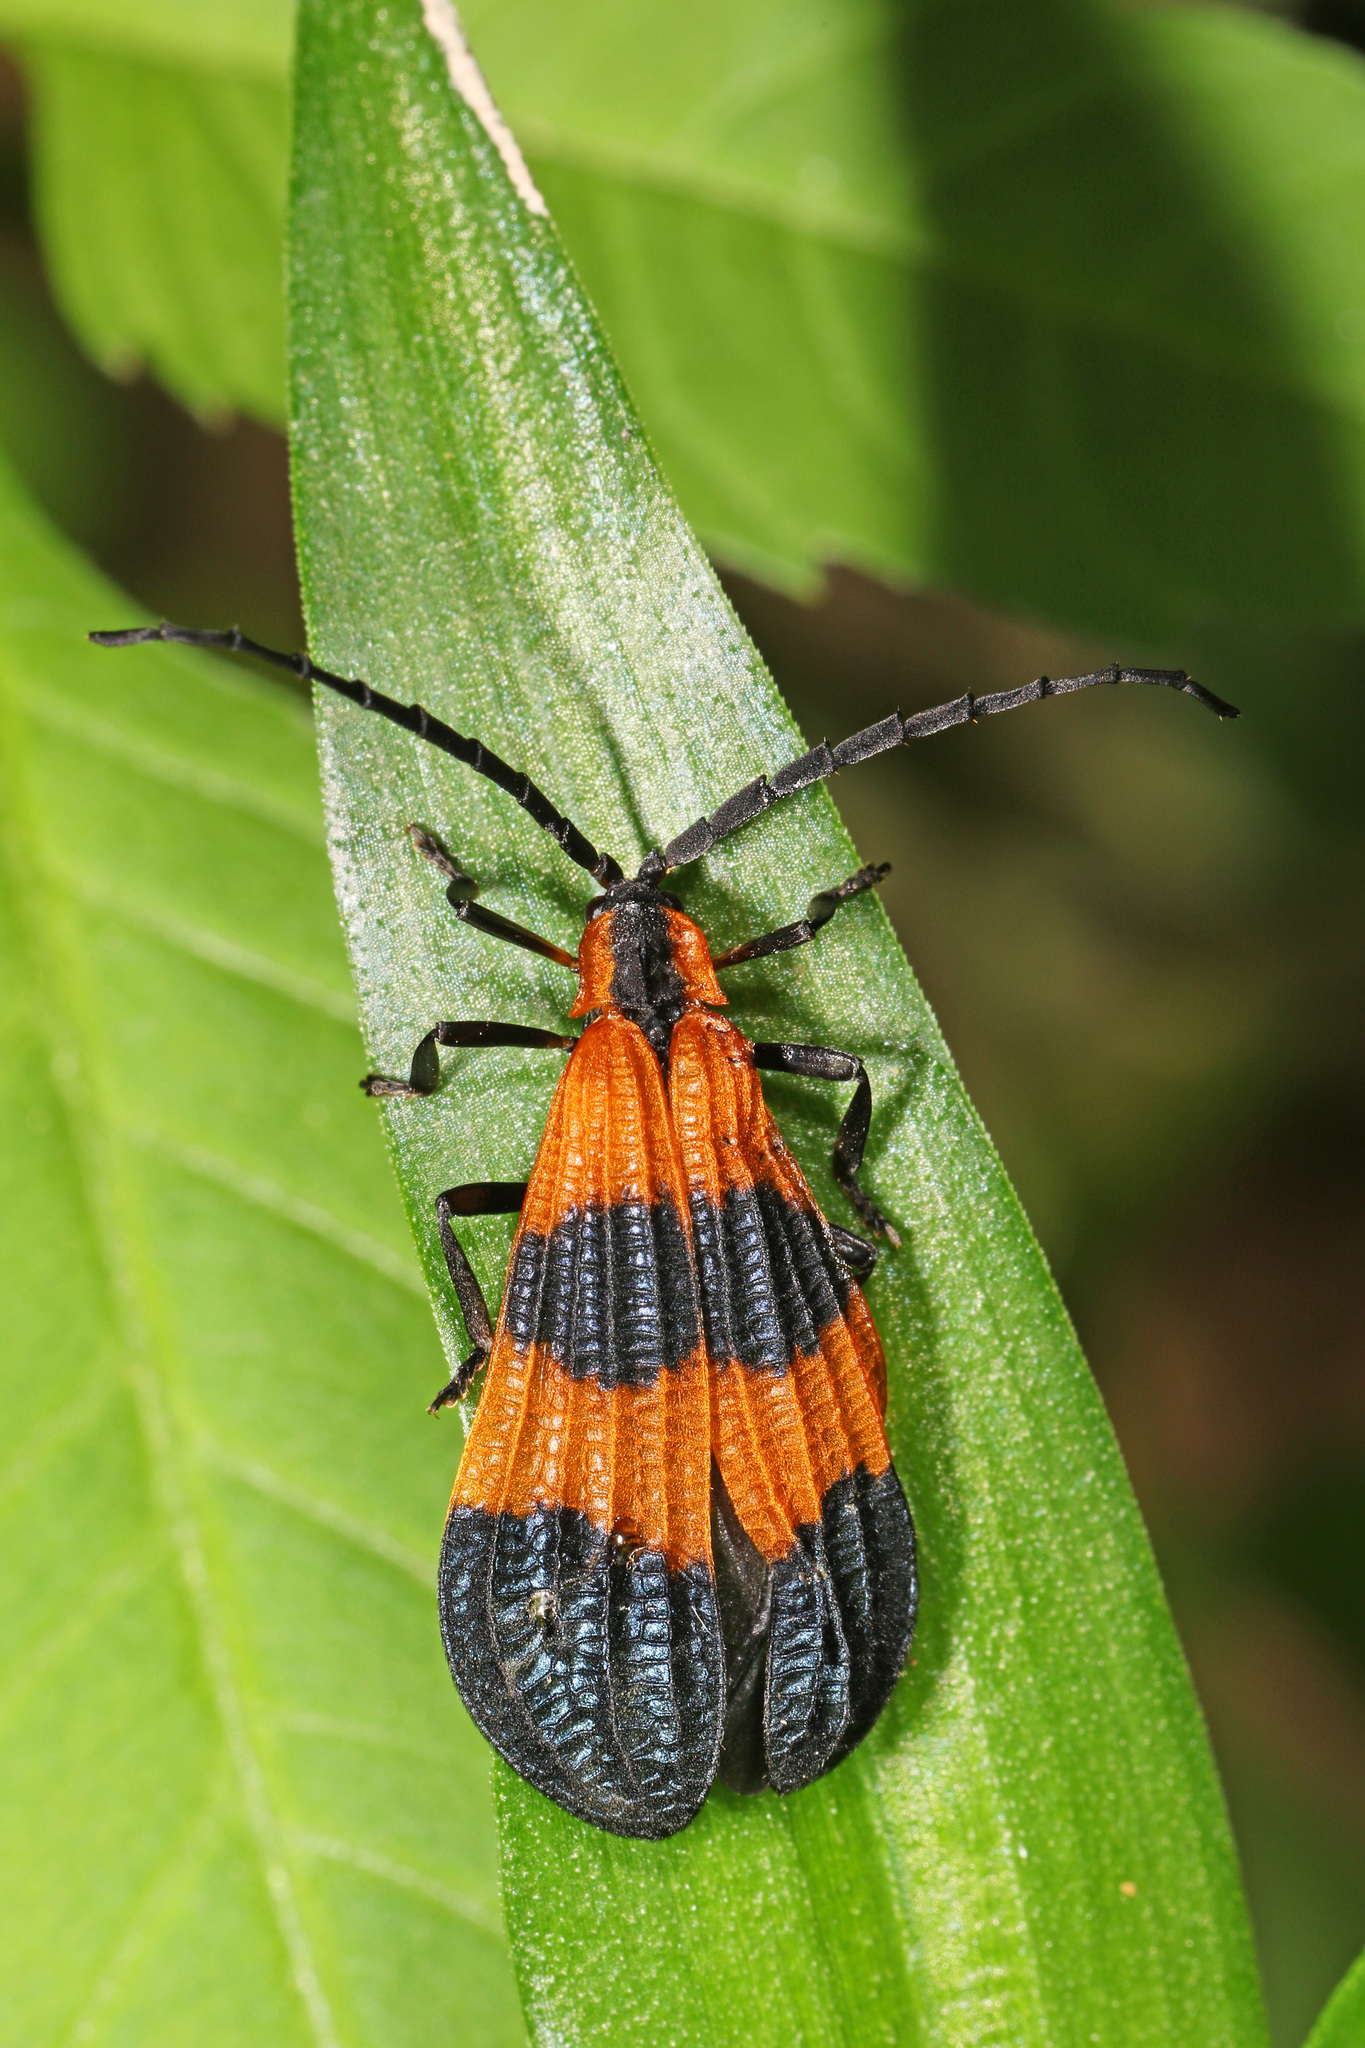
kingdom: Animalia
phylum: Arthropoda
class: Insecta
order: Coleoptera
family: Lycidae
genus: Calopteron
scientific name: Calopteron reticulatum
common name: Banded net-winged beetle
